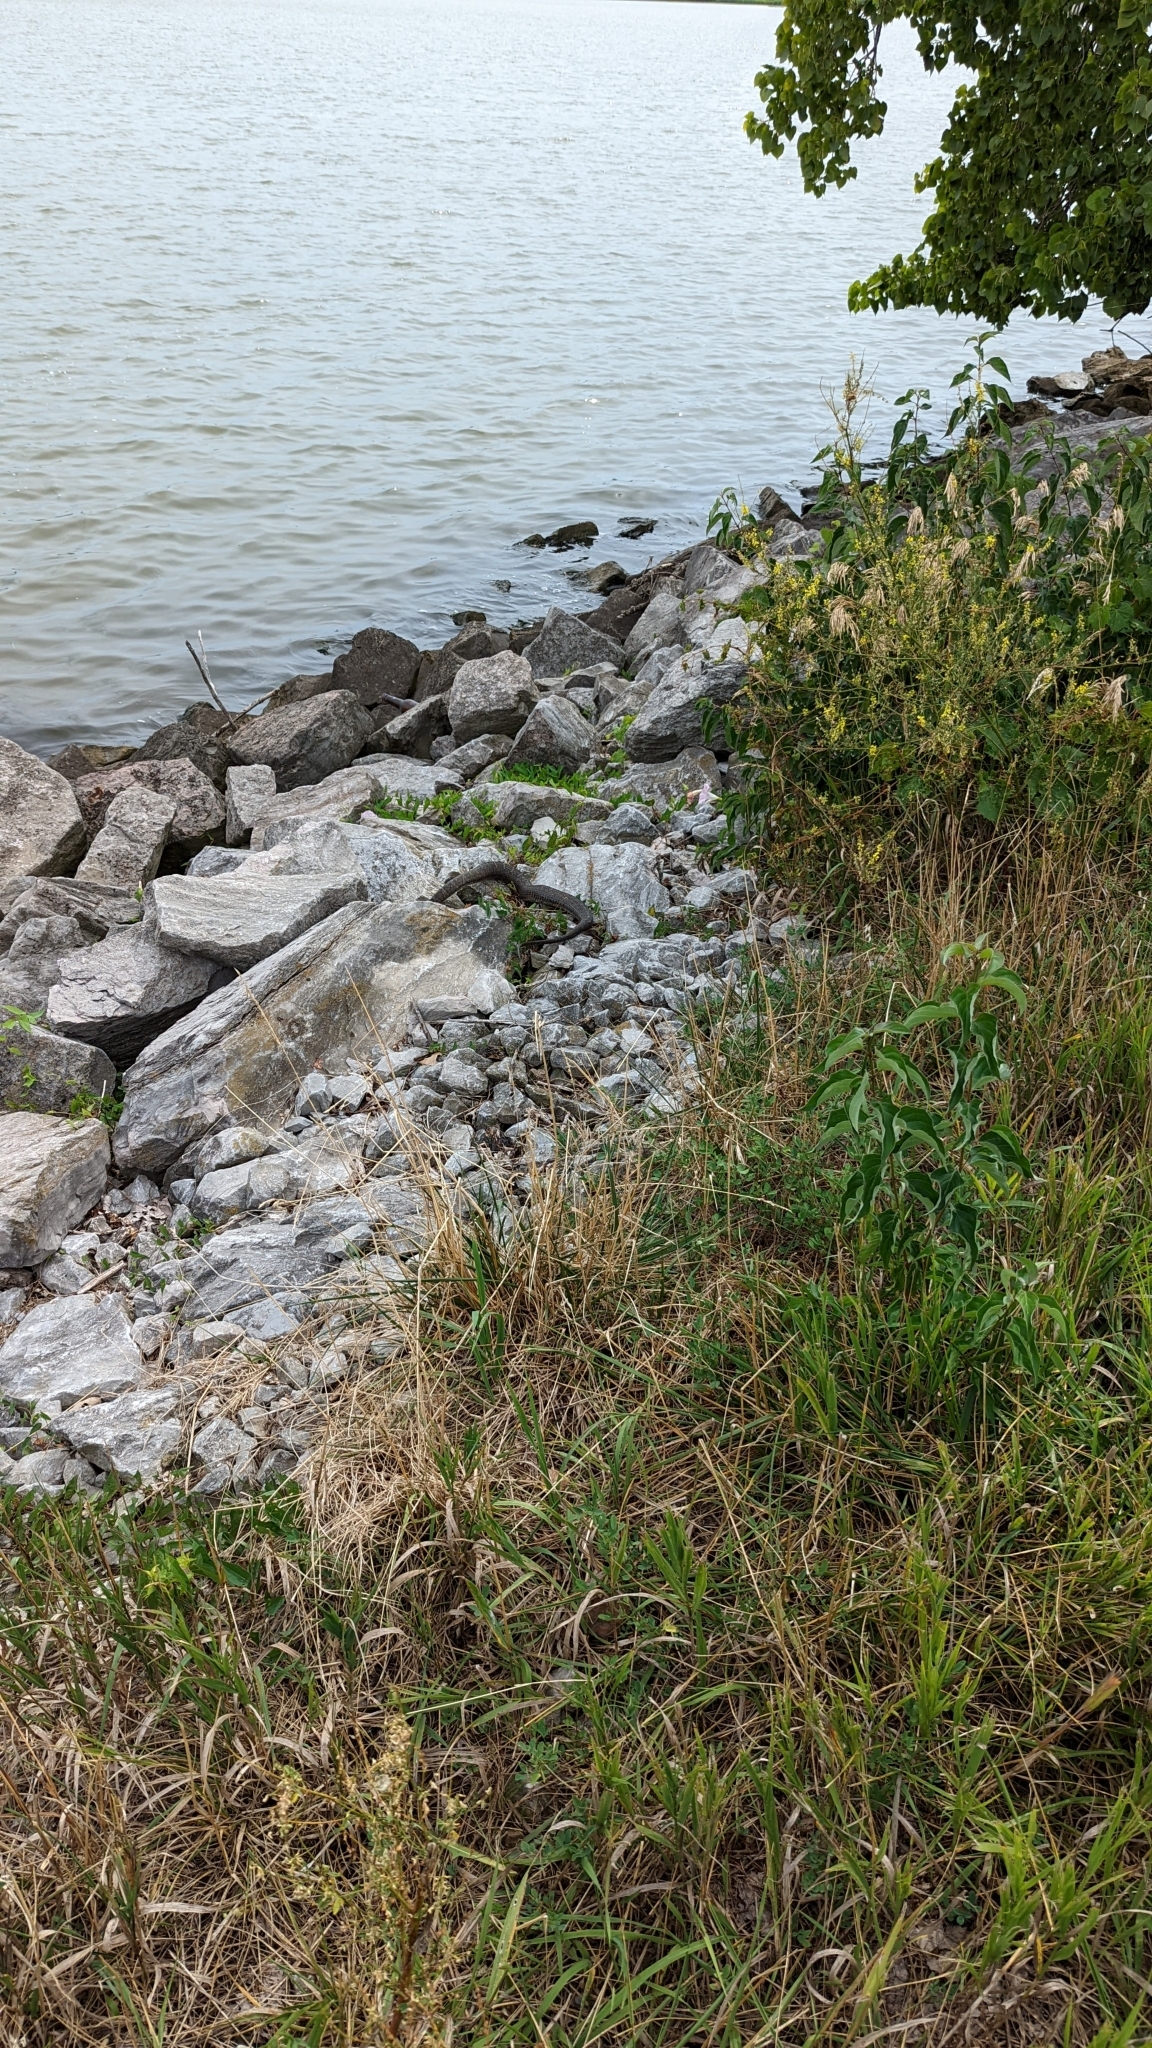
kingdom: Animalia
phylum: Chordata
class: Squamata
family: Colubridae
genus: Nerodia
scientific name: Nerodia sipedon
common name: Northern water snake
